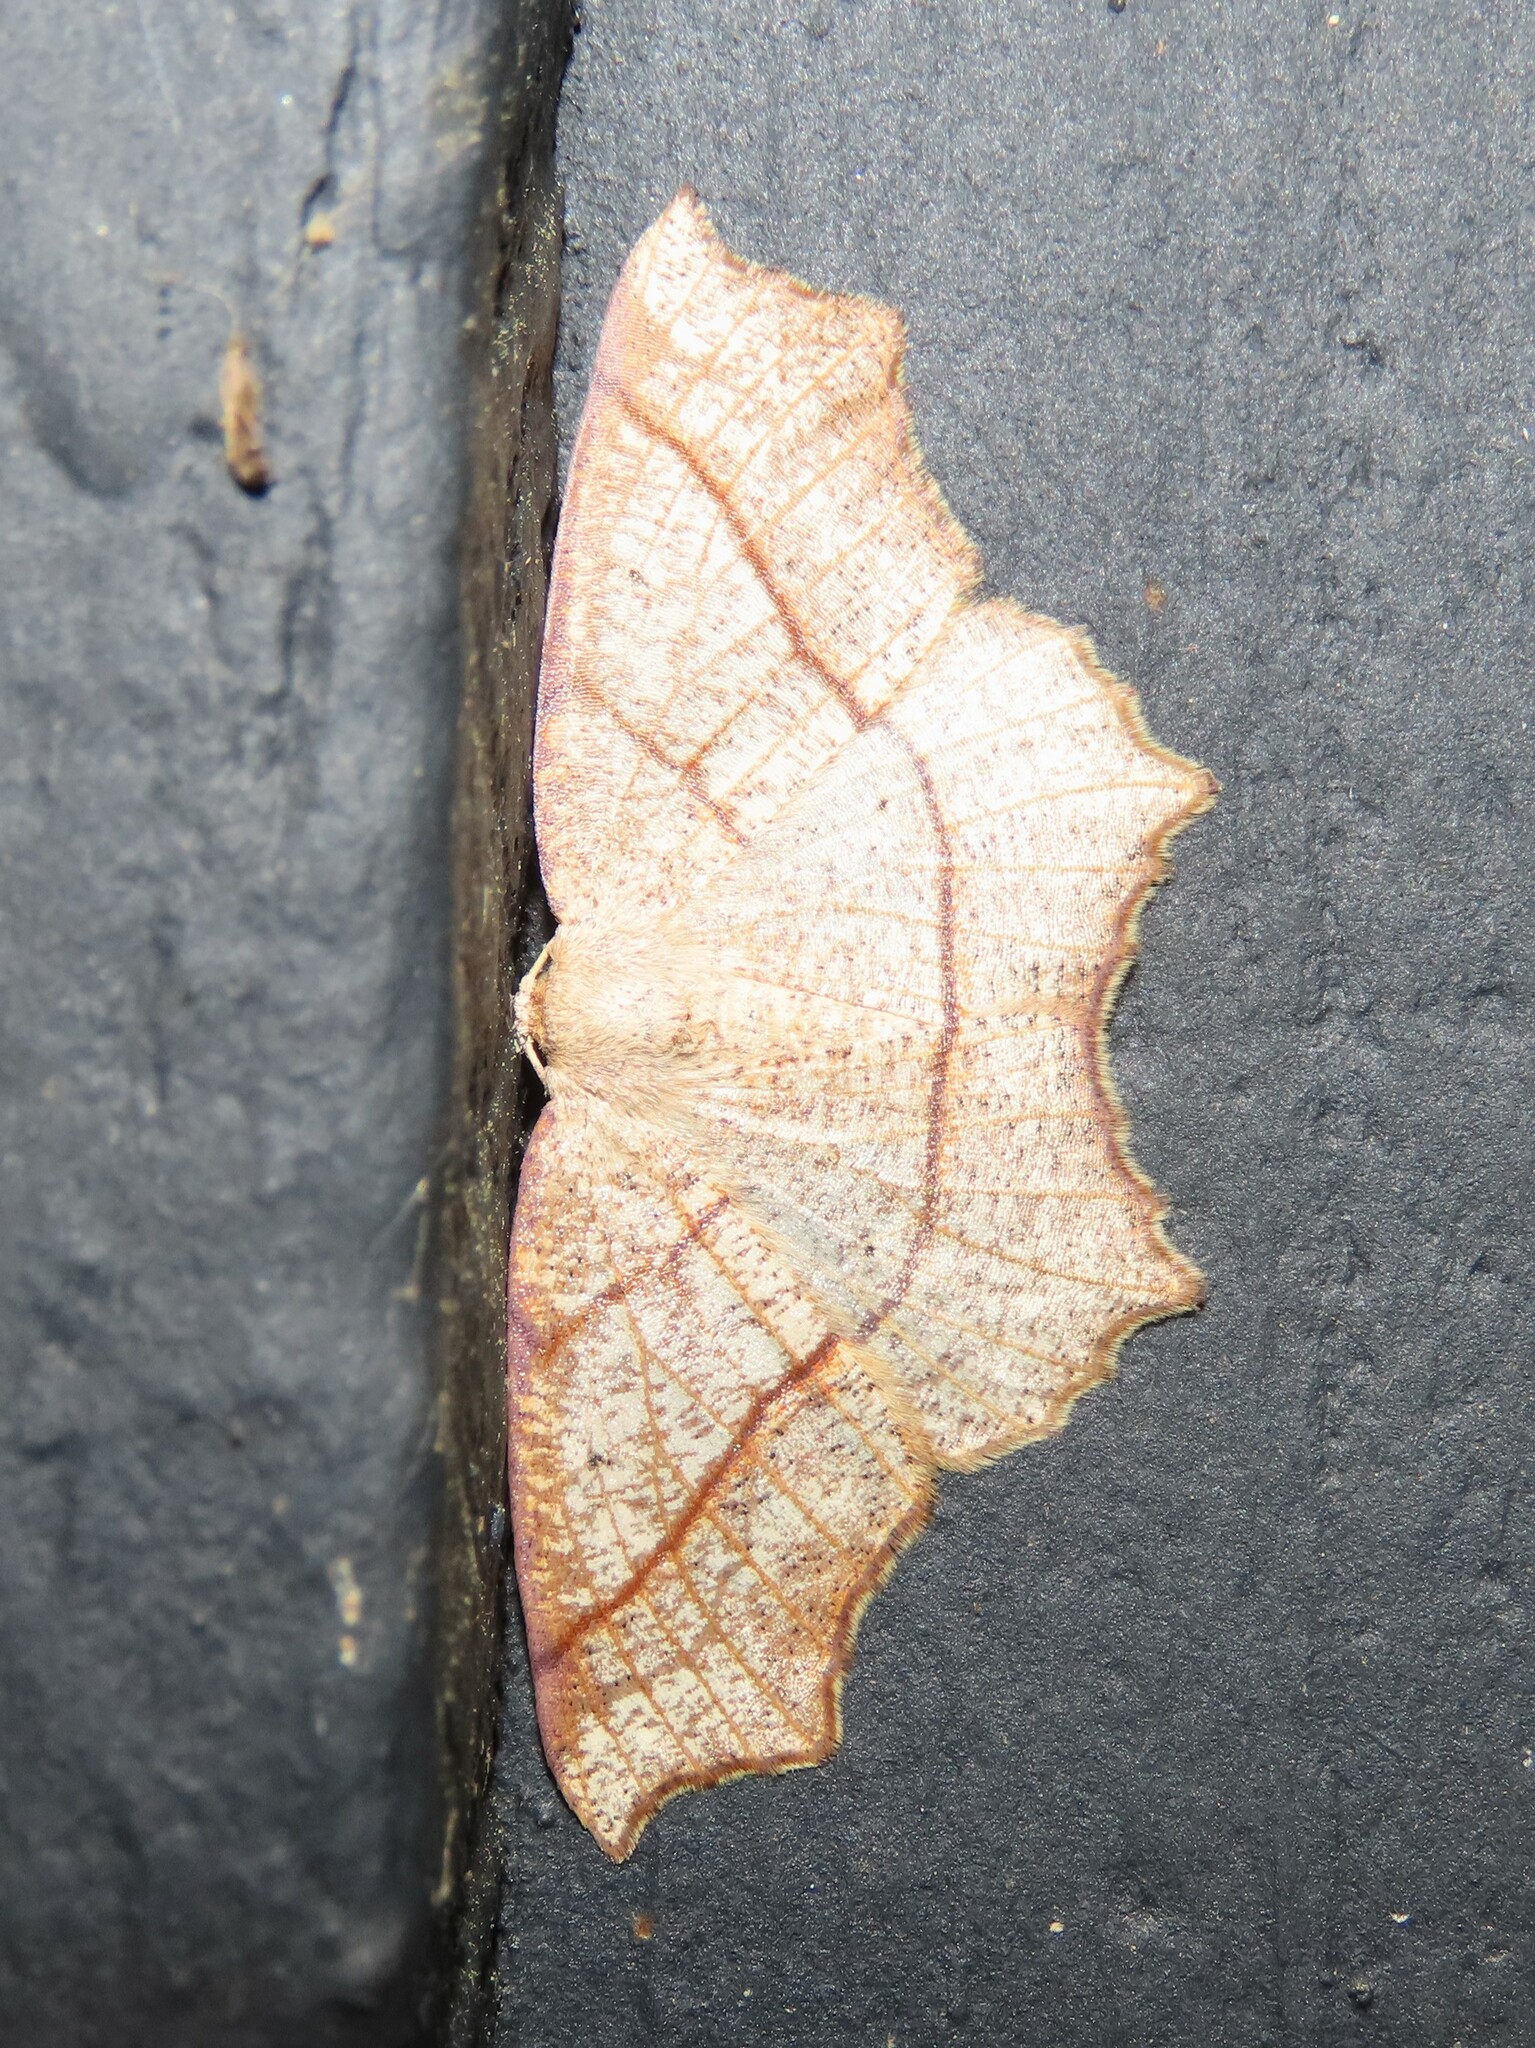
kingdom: Animalia
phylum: Arthropoda
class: Insecta
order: Lepidoptera
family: Geometridae
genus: Besma
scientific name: Besma quercivoraria
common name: Oak besma
